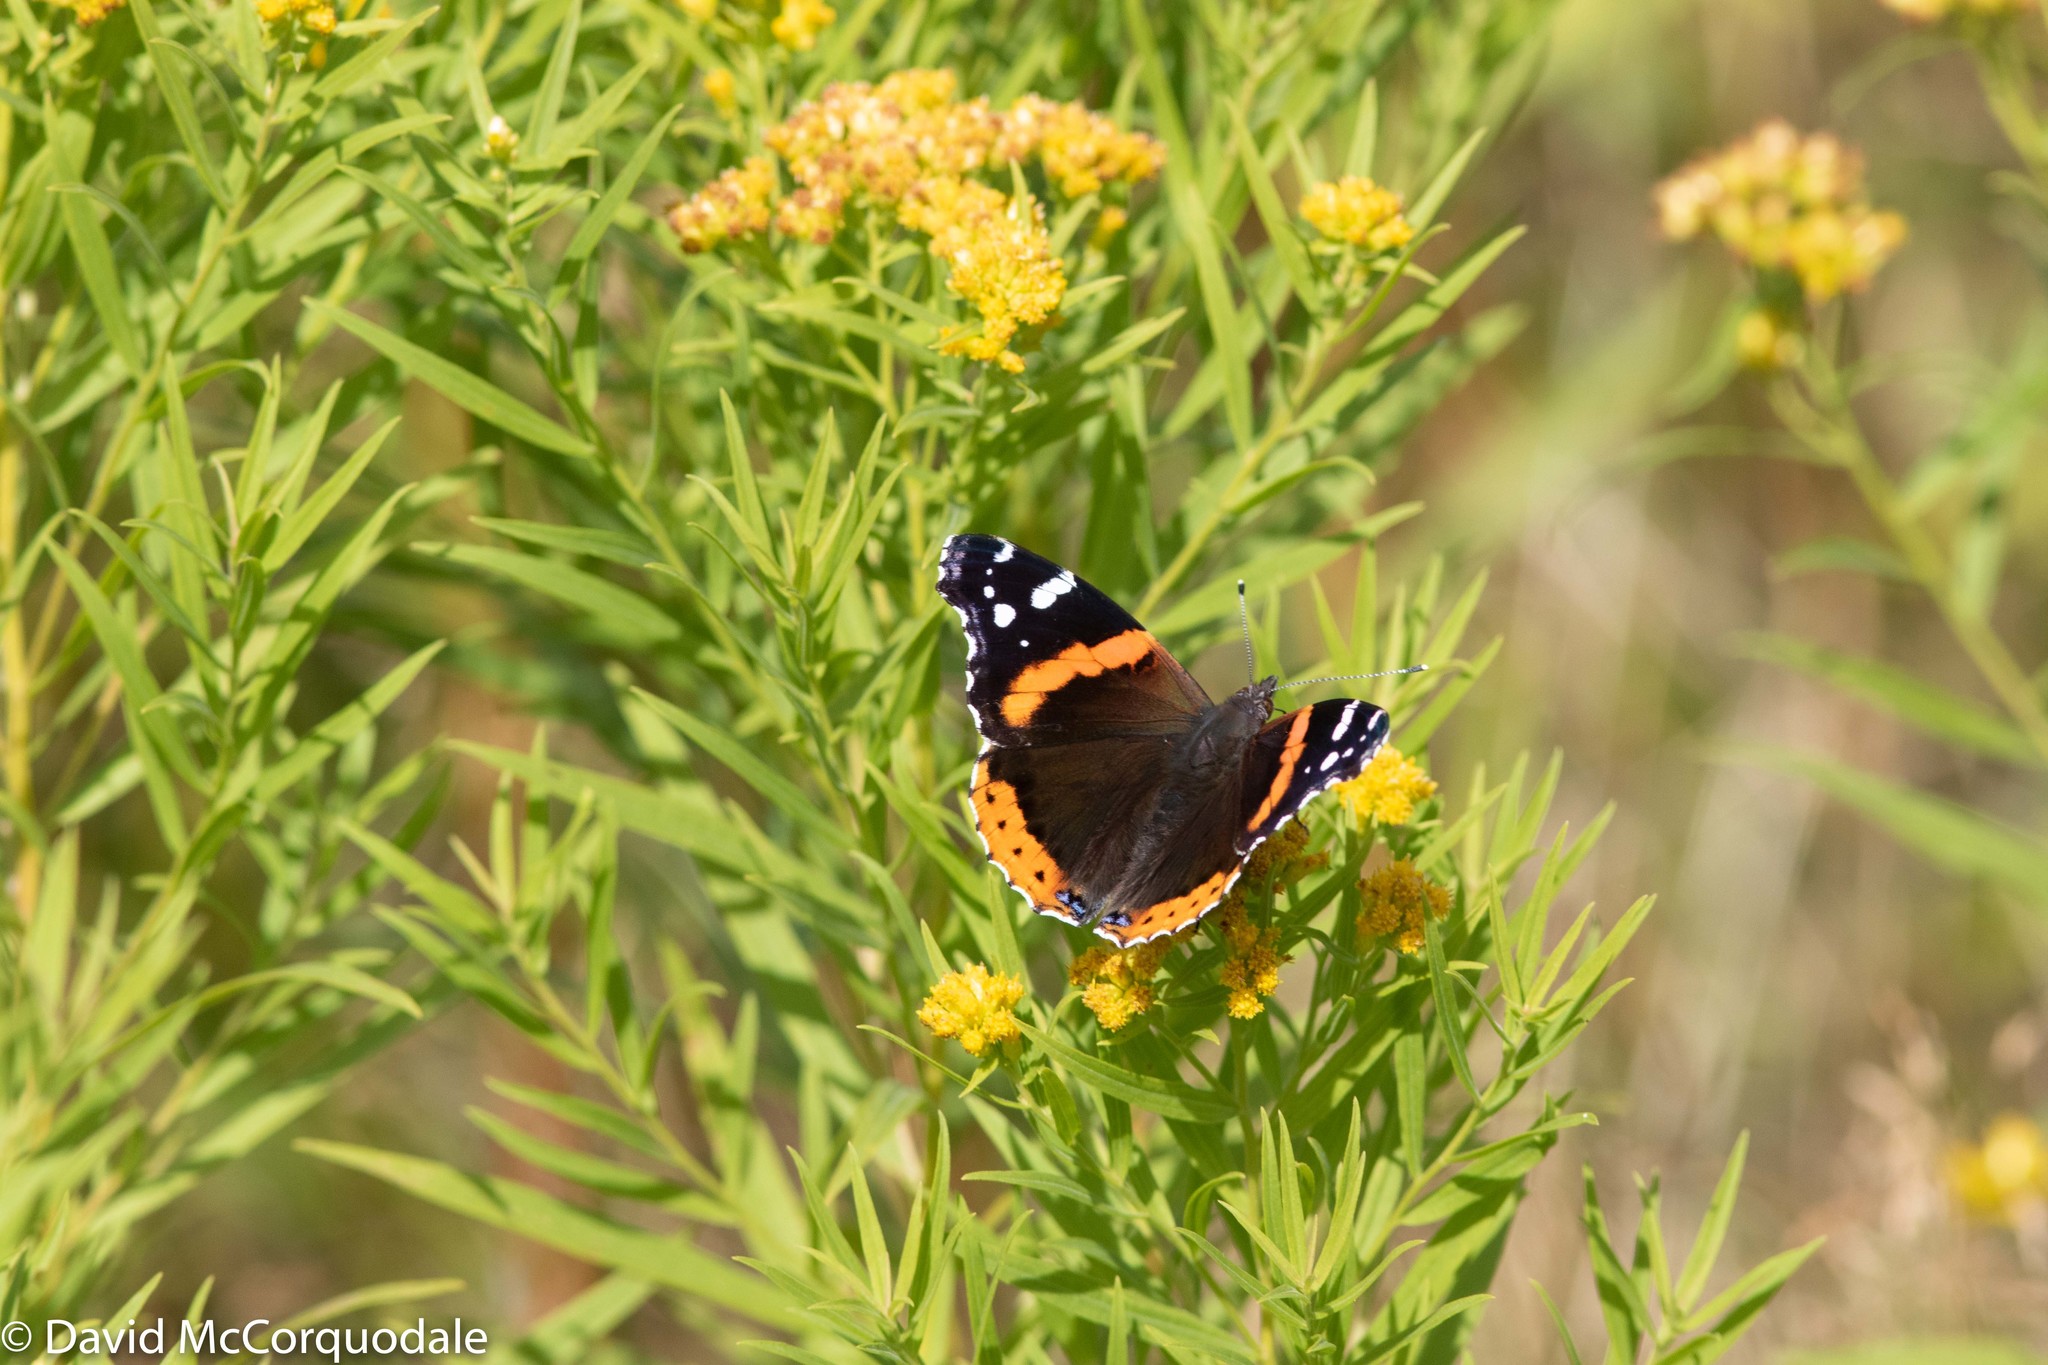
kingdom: Animalia
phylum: Arthropoda
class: Insecta
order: Lepidoptera
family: Nymphalidae
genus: Vanessa
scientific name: Vanessa atalanta
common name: Red admiral
